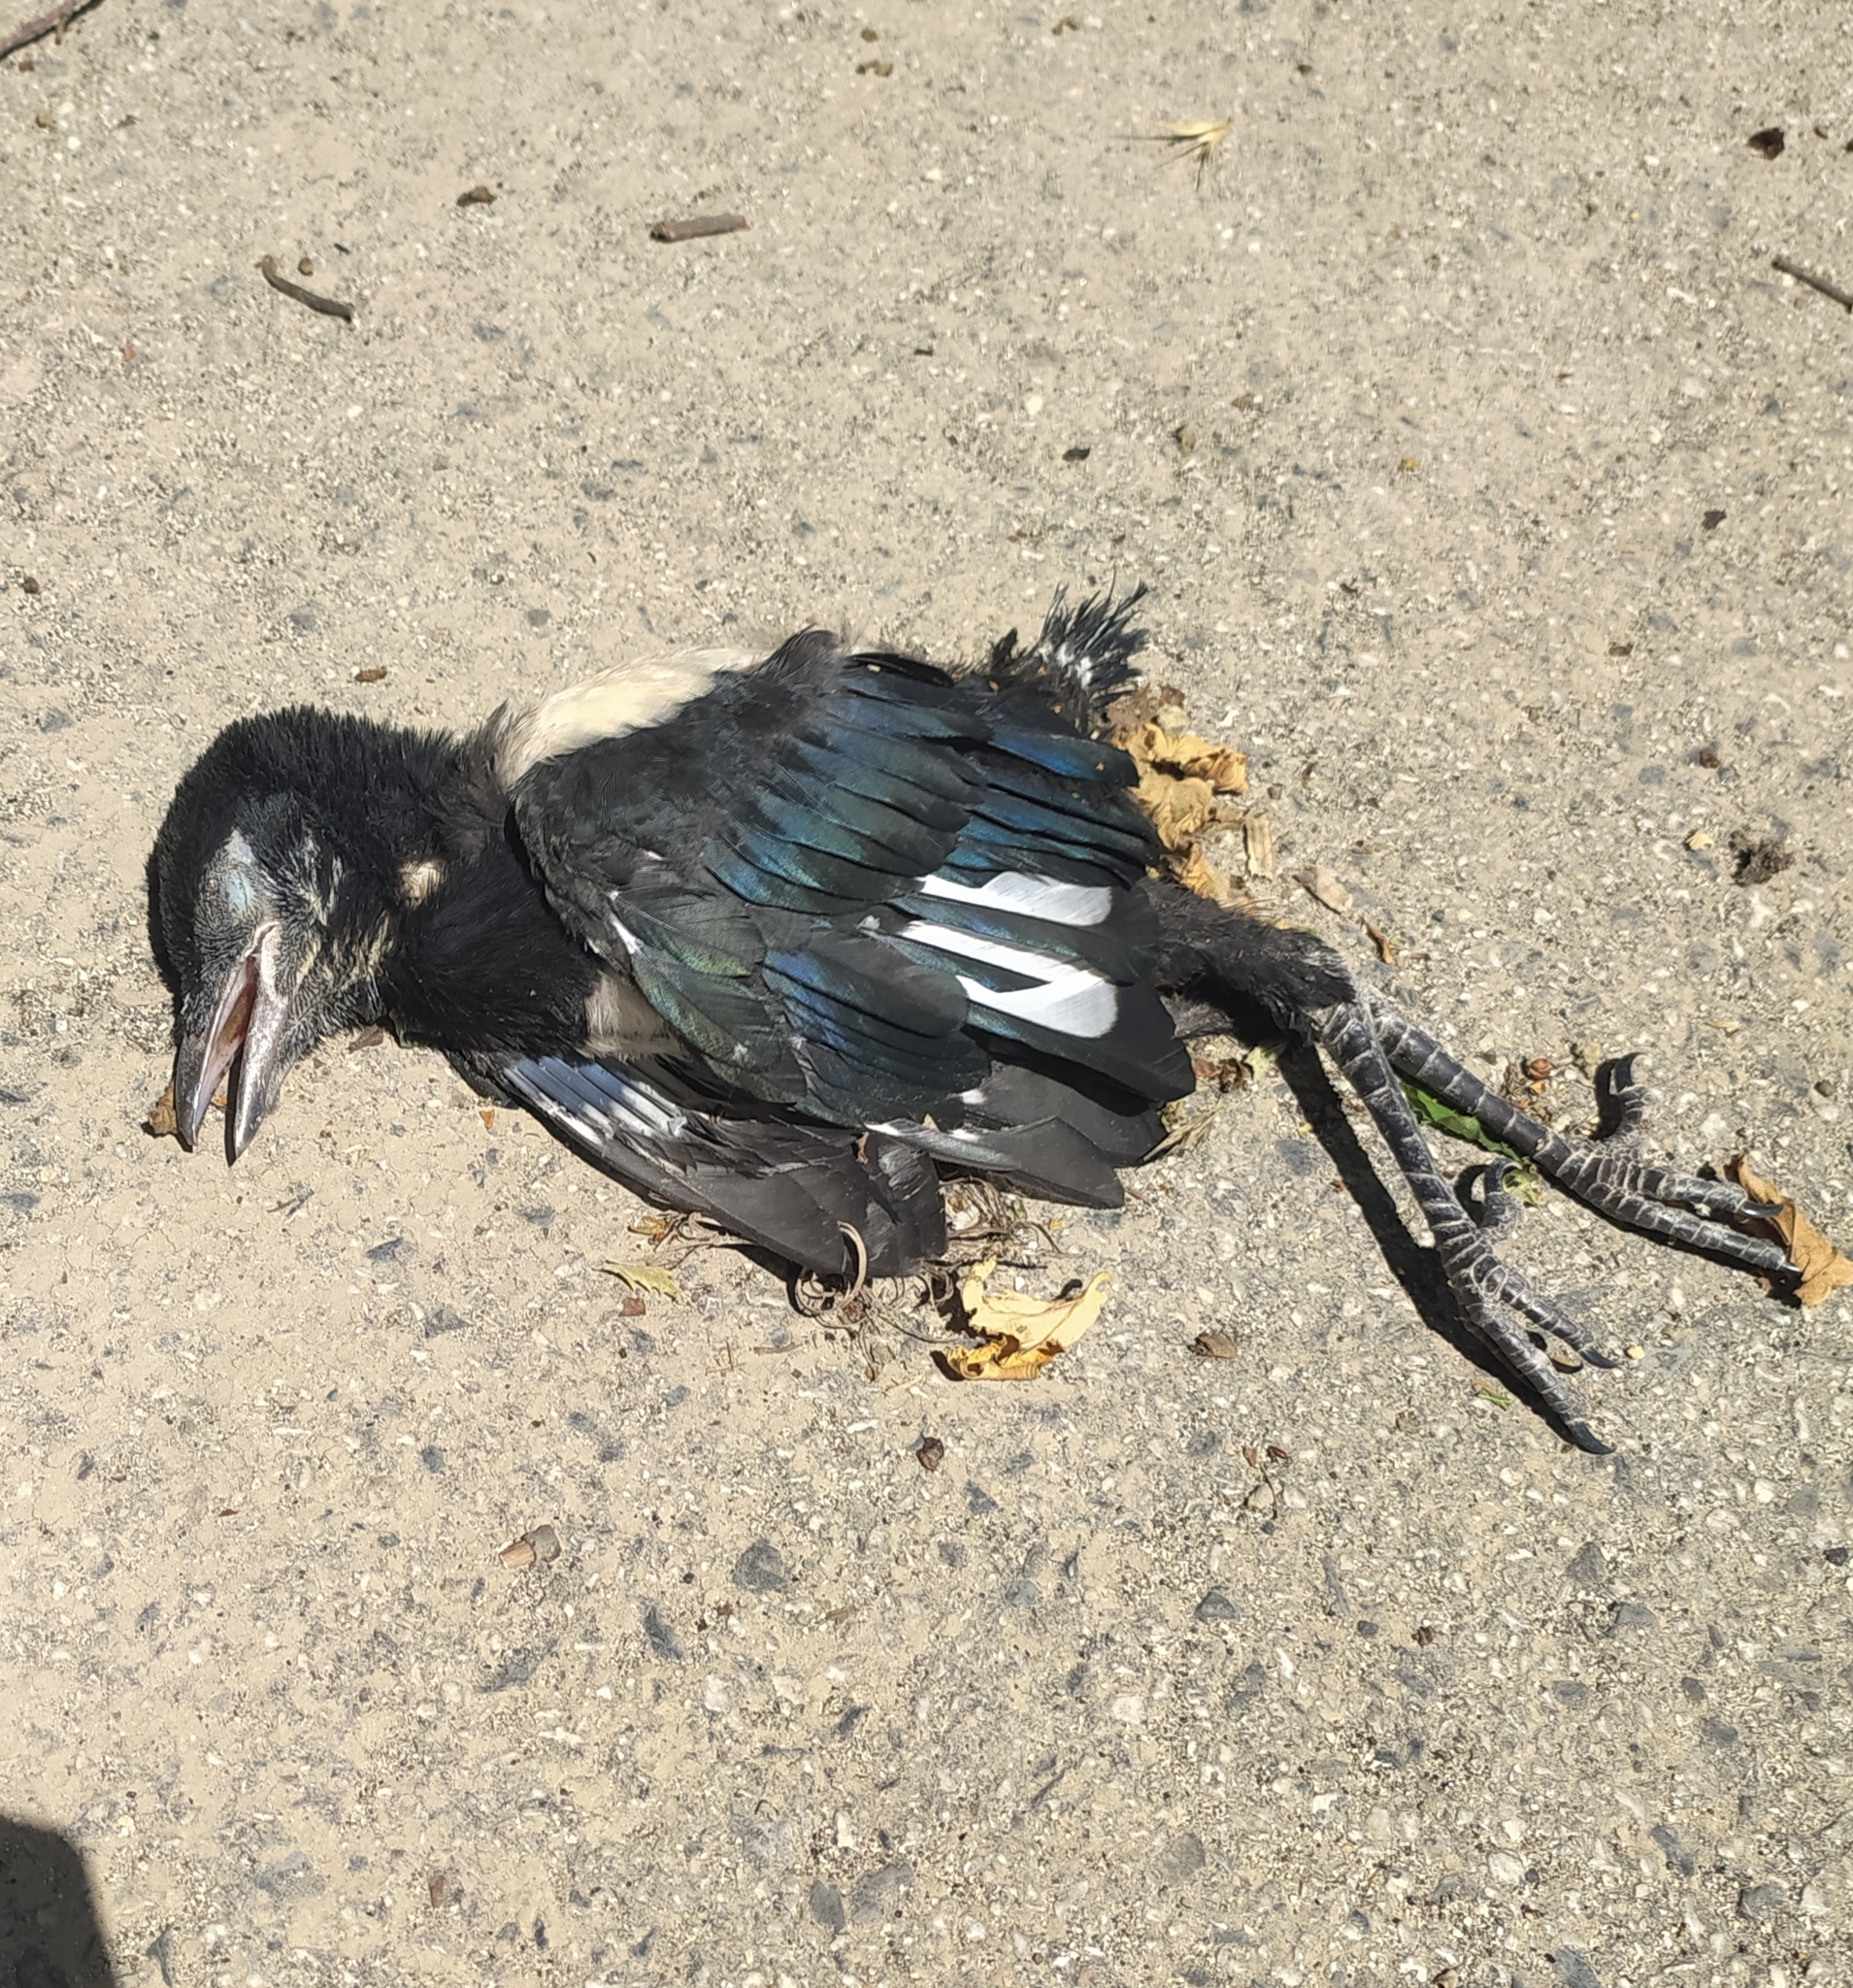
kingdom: Animalia
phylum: Chordata
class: Aves
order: Passeriformes
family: Corvidae
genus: Pica
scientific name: Pica pica
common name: Eurasian magpie
